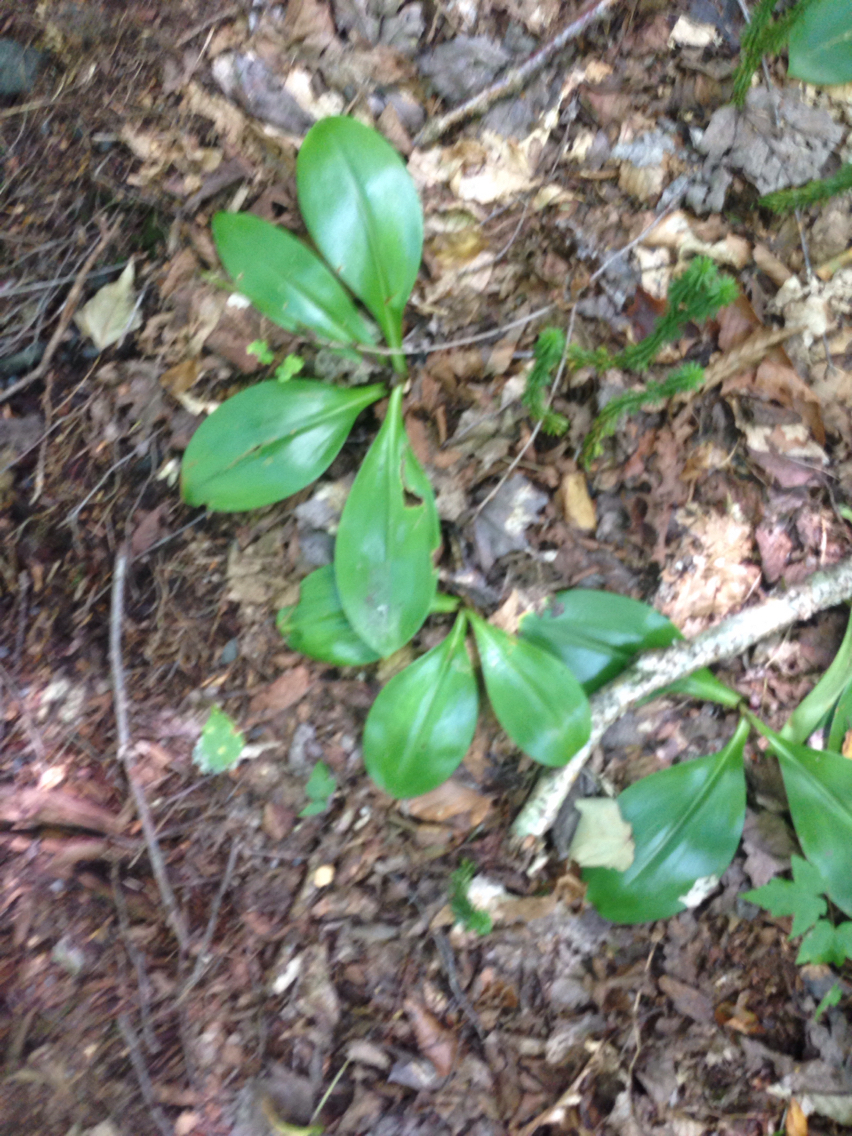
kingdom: Plantae
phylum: Tracheophyta
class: Liliopsida
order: Liliales
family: Liliaceae
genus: Clintonia
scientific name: Clintonia borealis
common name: Yellow clintonia
